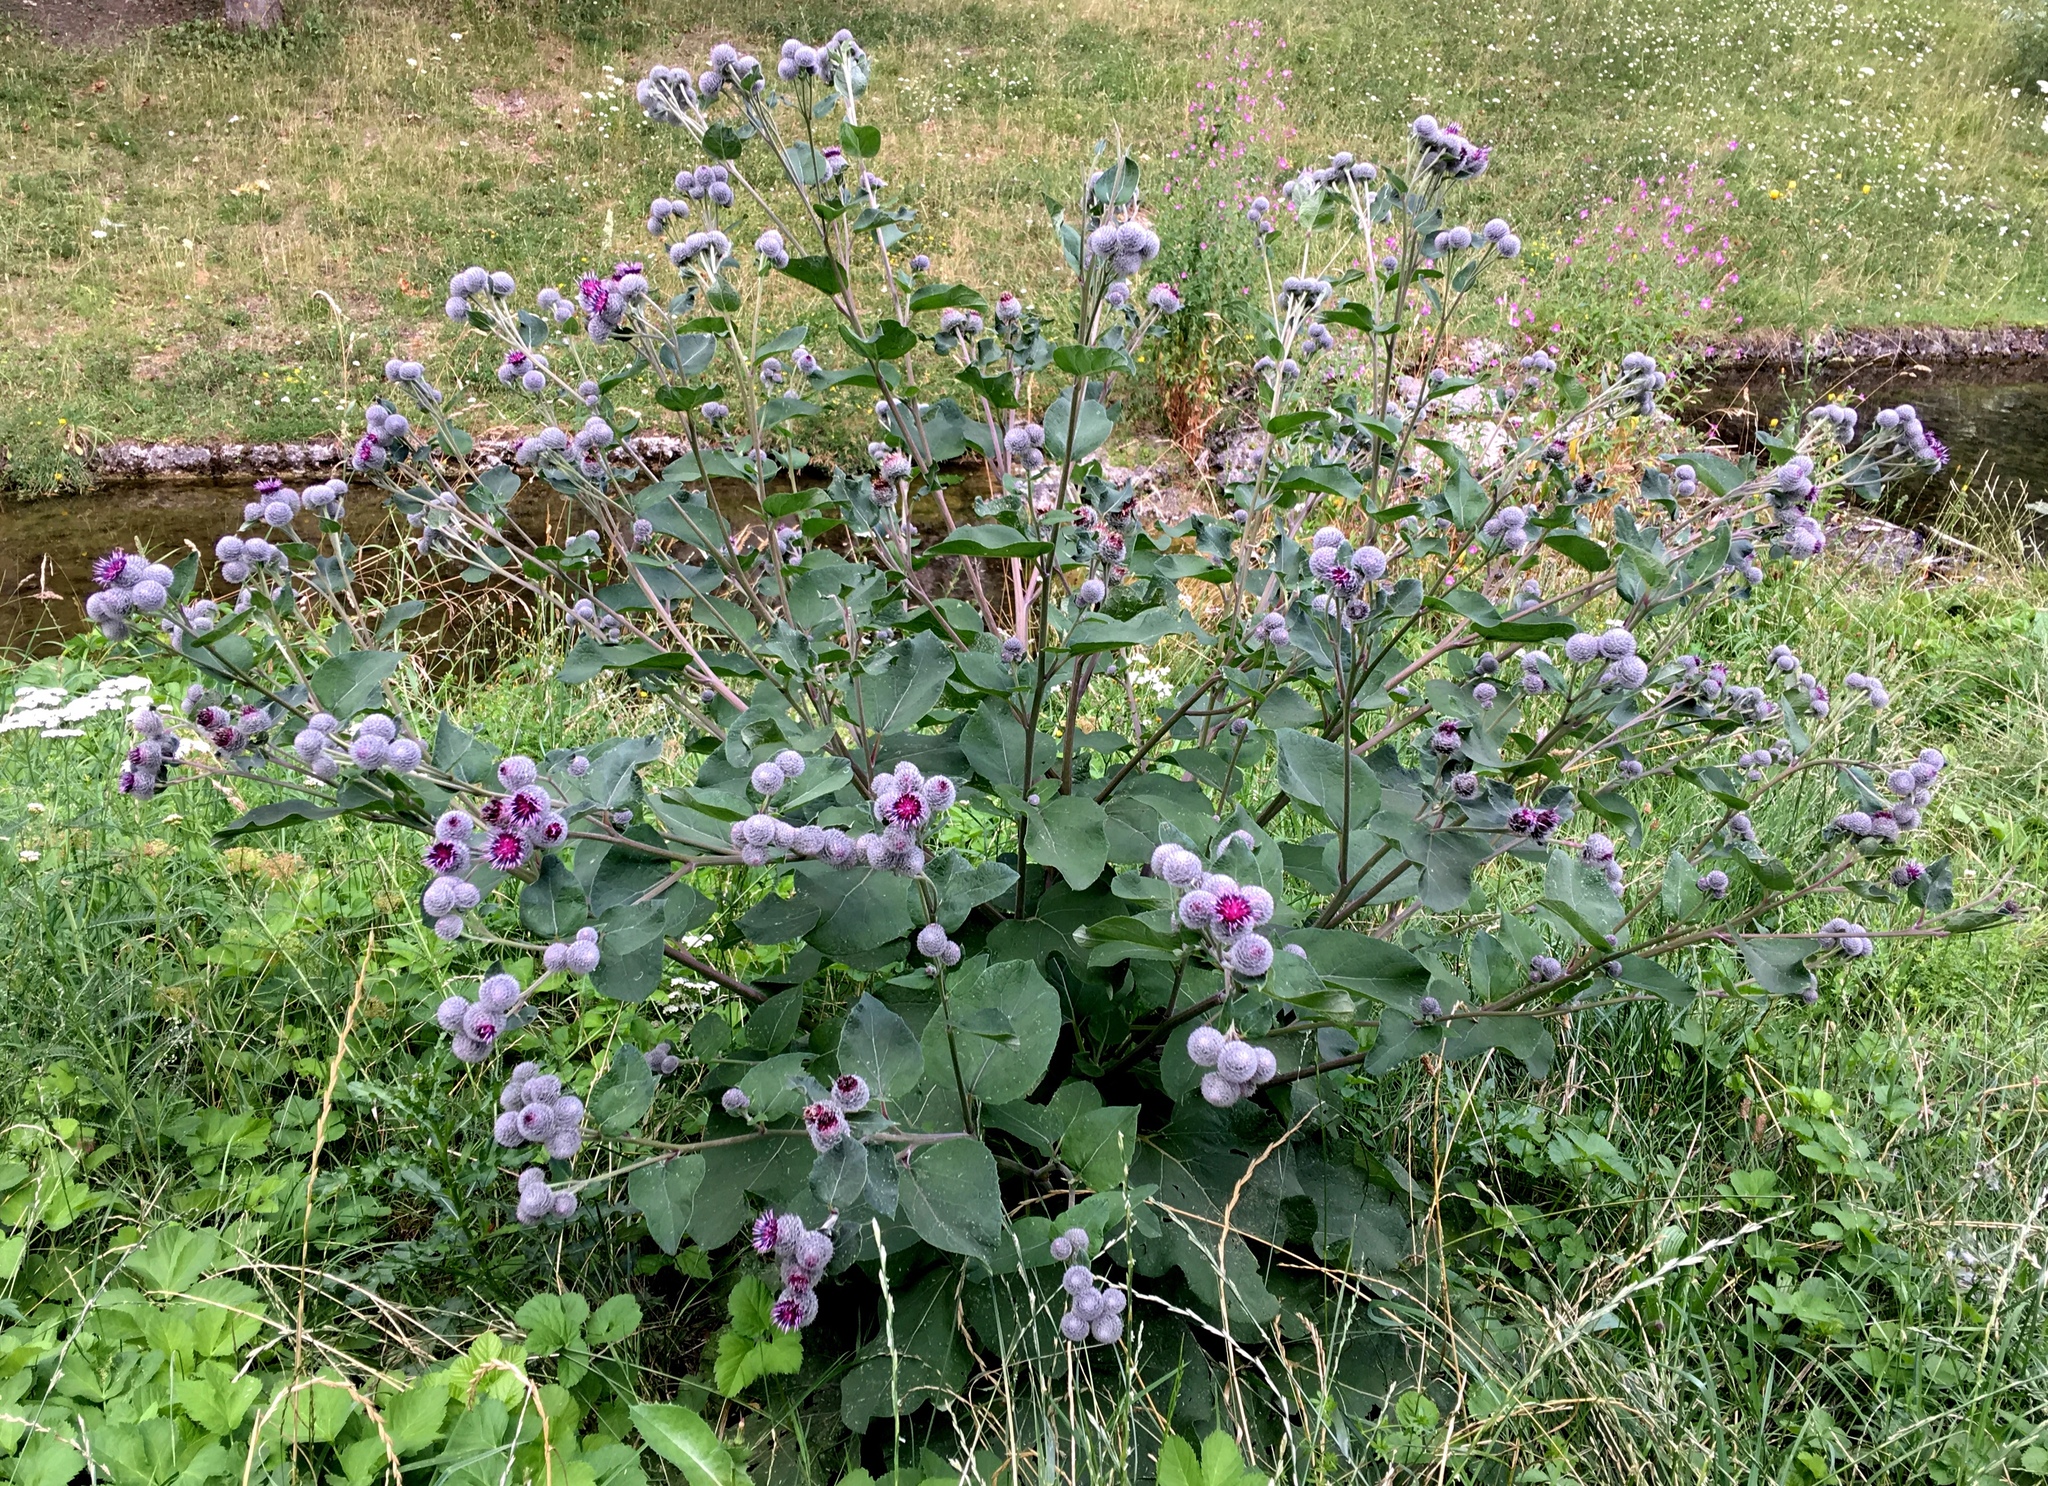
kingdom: Plantae
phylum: Tracheophyta
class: Magnoliopsida
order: Asterales
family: Asteraceae
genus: Arctium
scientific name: Arctium tomentosum
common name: Woolly burdock
